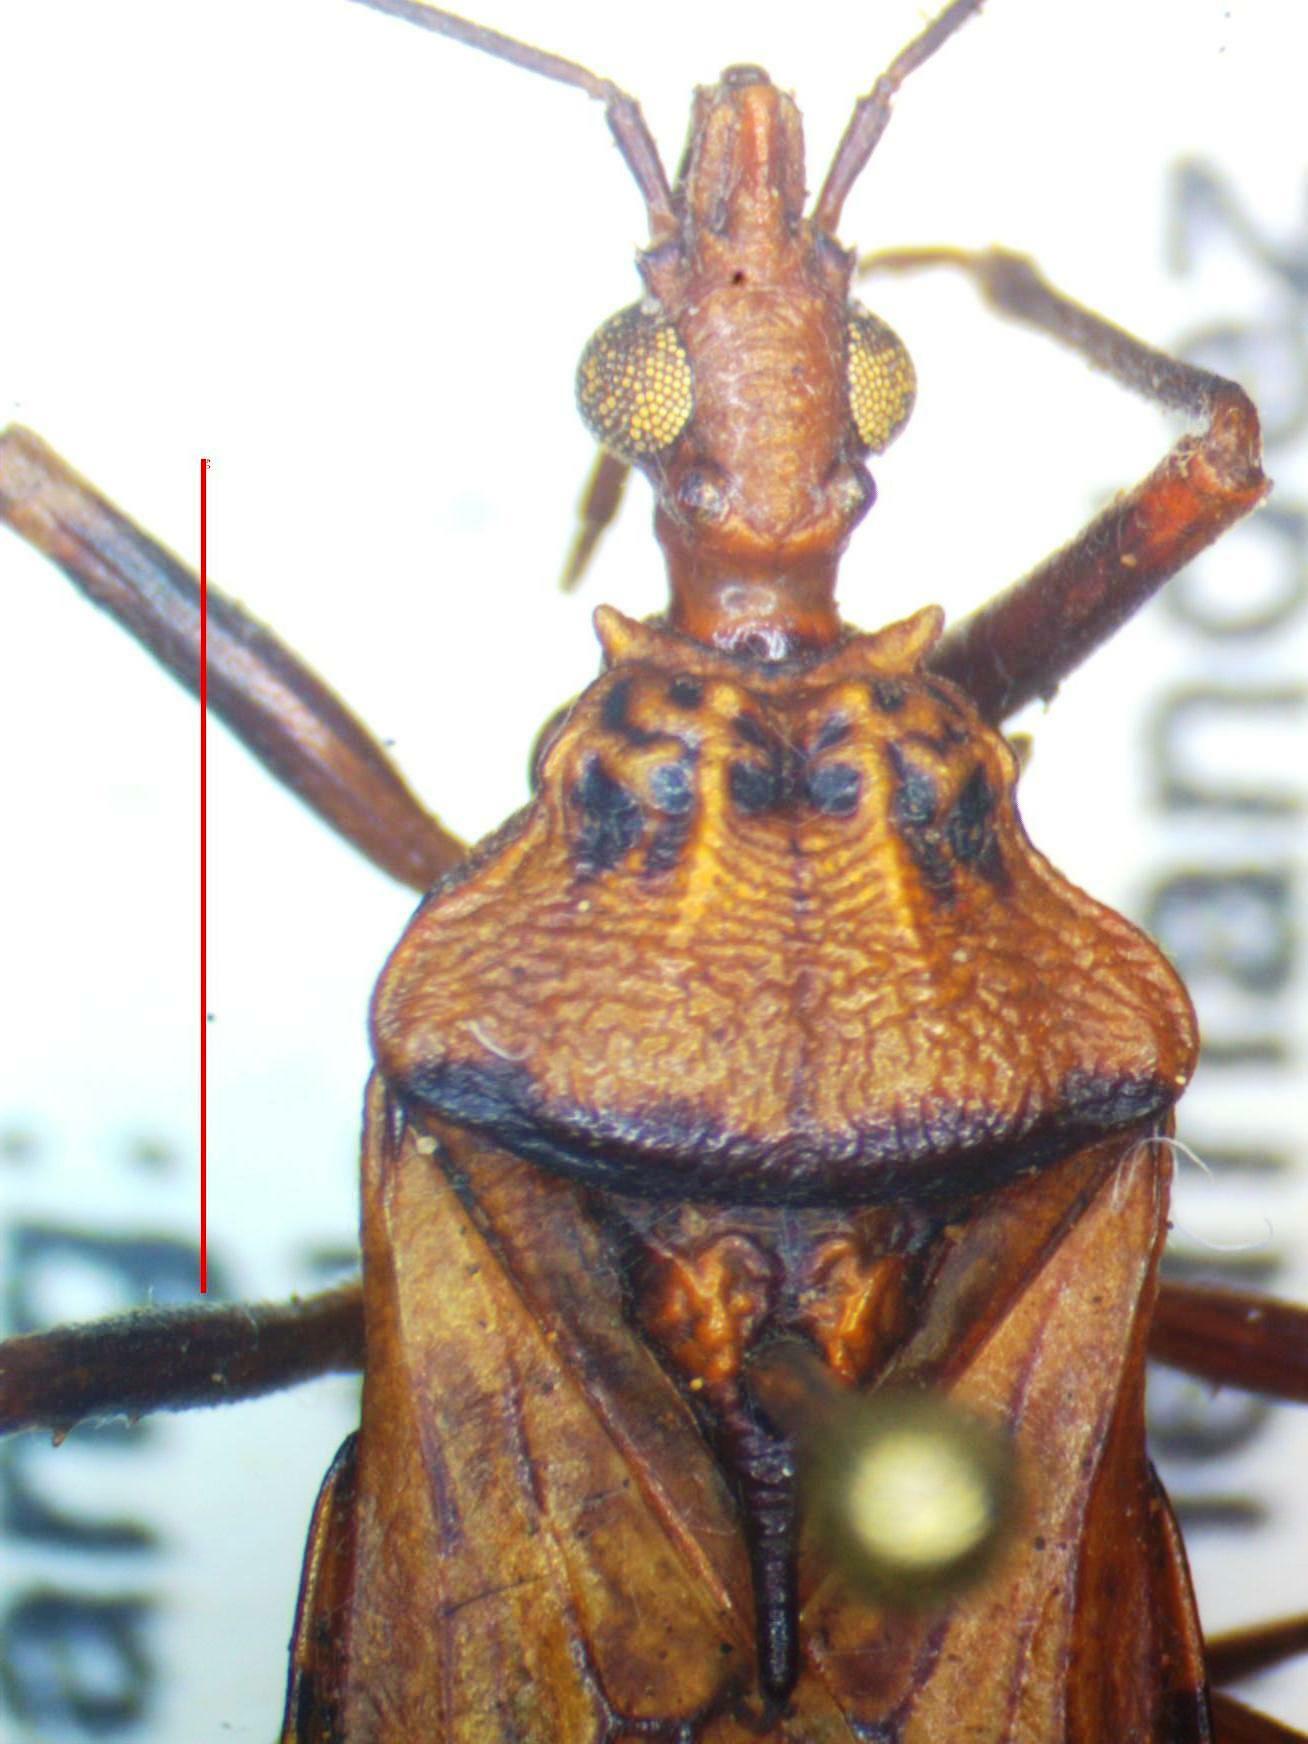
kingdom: Animalia
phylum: Arthropoda
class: Insecta
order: Hemiptera
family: Reduviidae
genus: Panstrongylus
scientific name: Panstrongylus geniculatus
